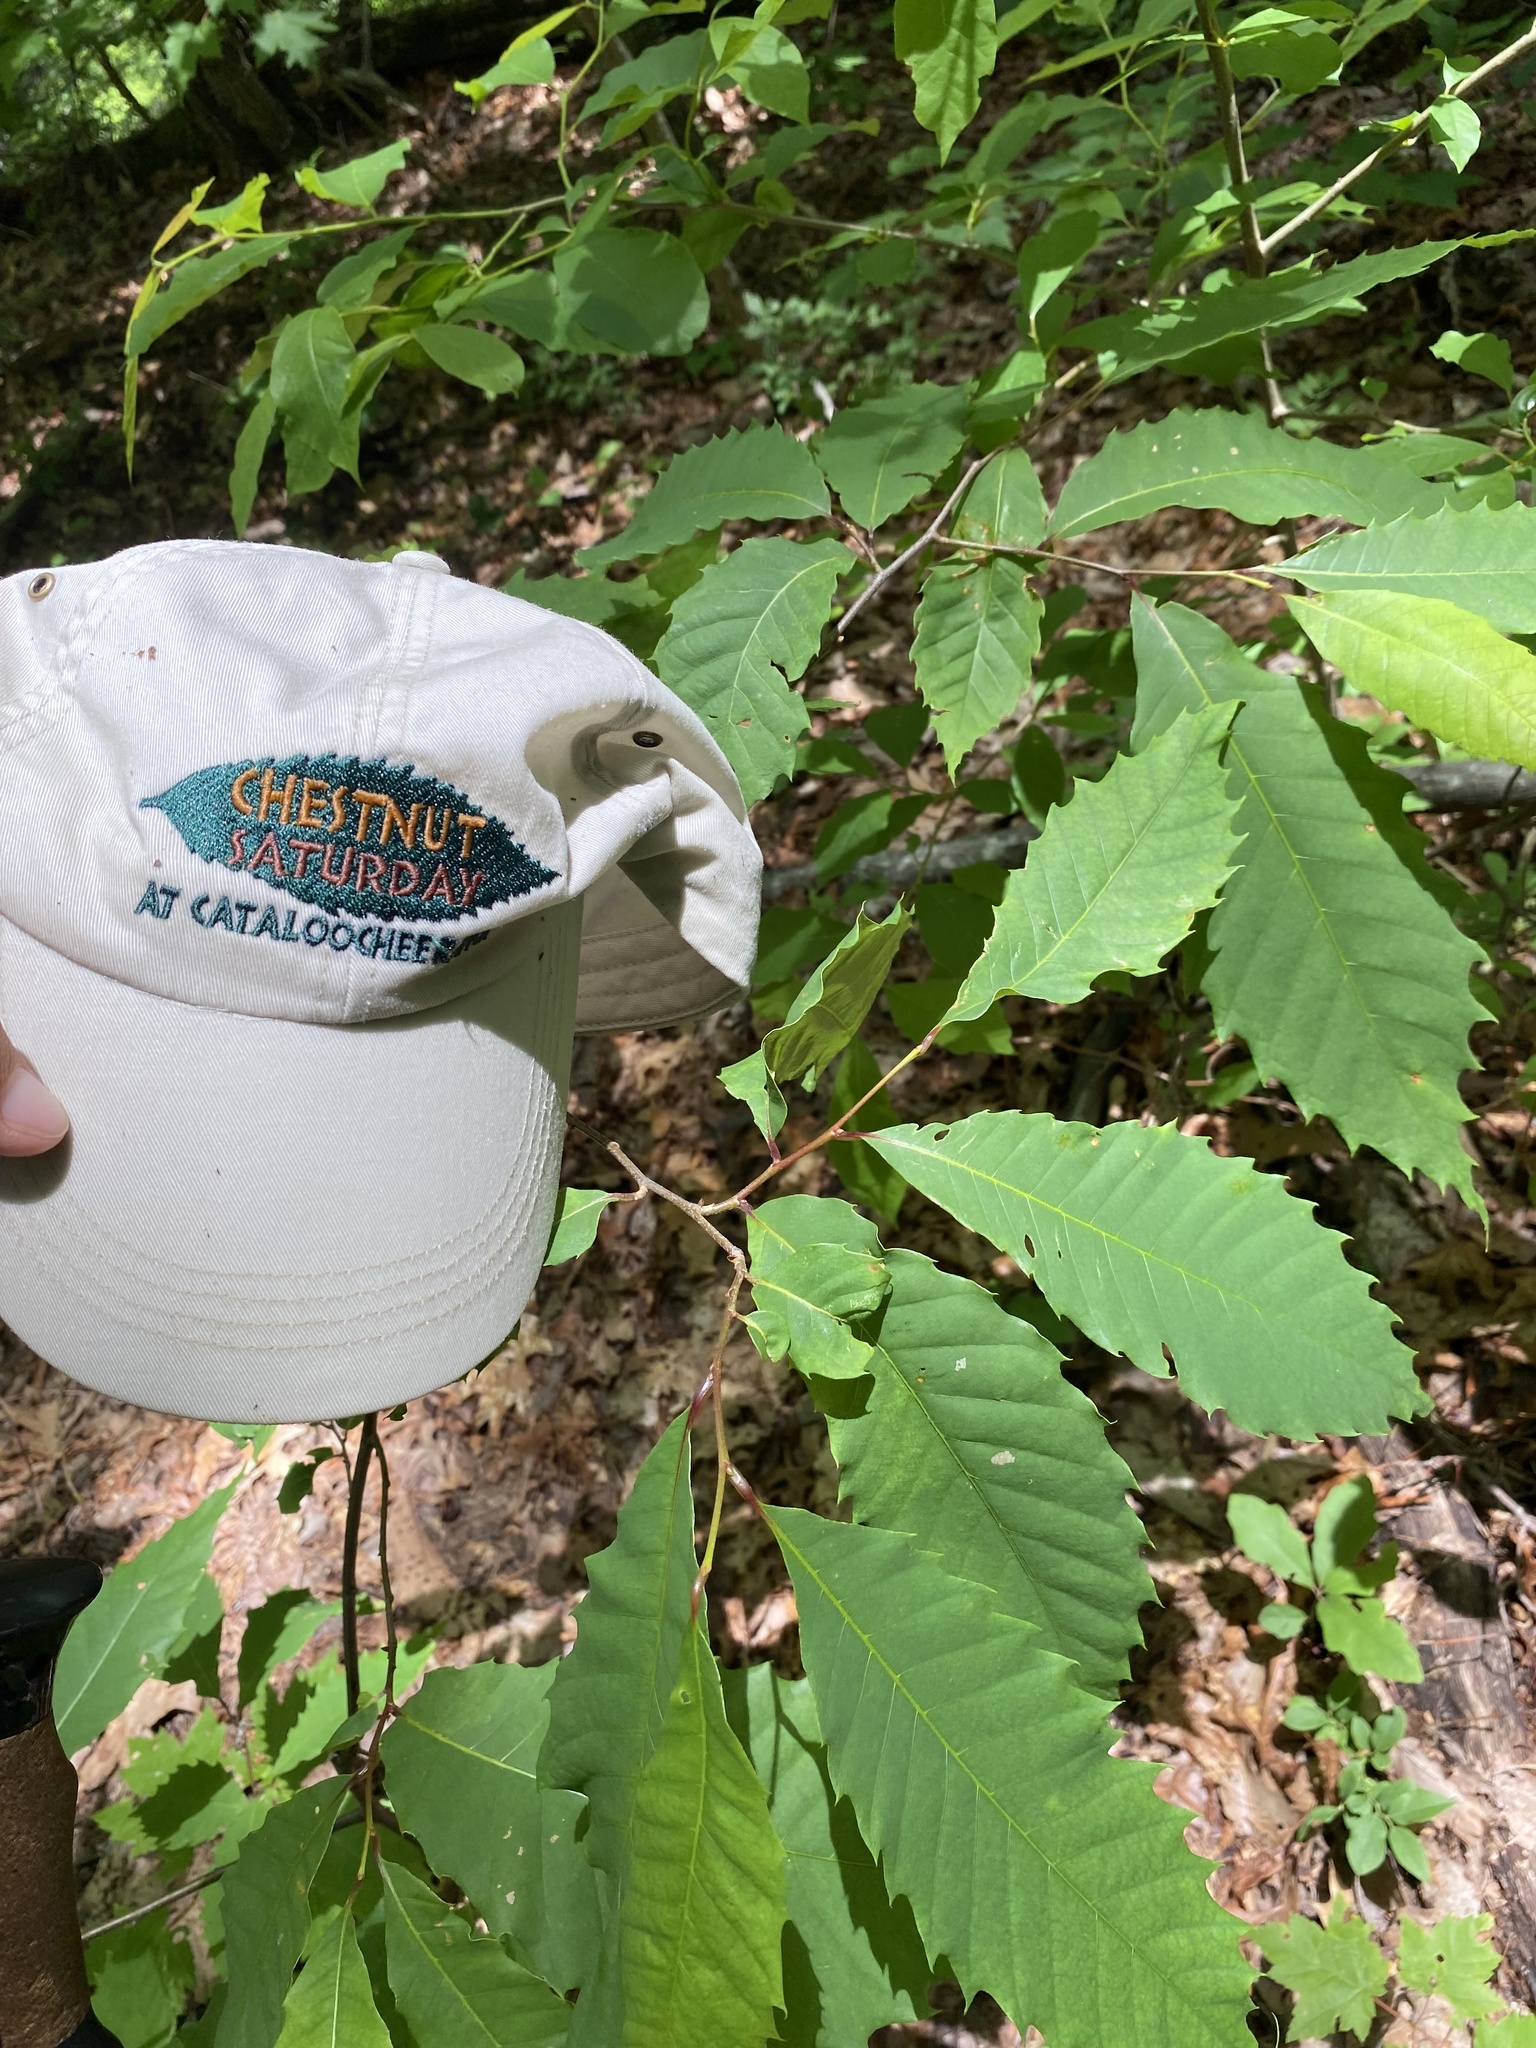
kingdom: Plantae
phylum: Tracheophyta
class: Magnoliopsida
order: Fagales
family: Fagaceae
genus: Castanea
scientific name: Castanea dentata
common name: American chestnut
